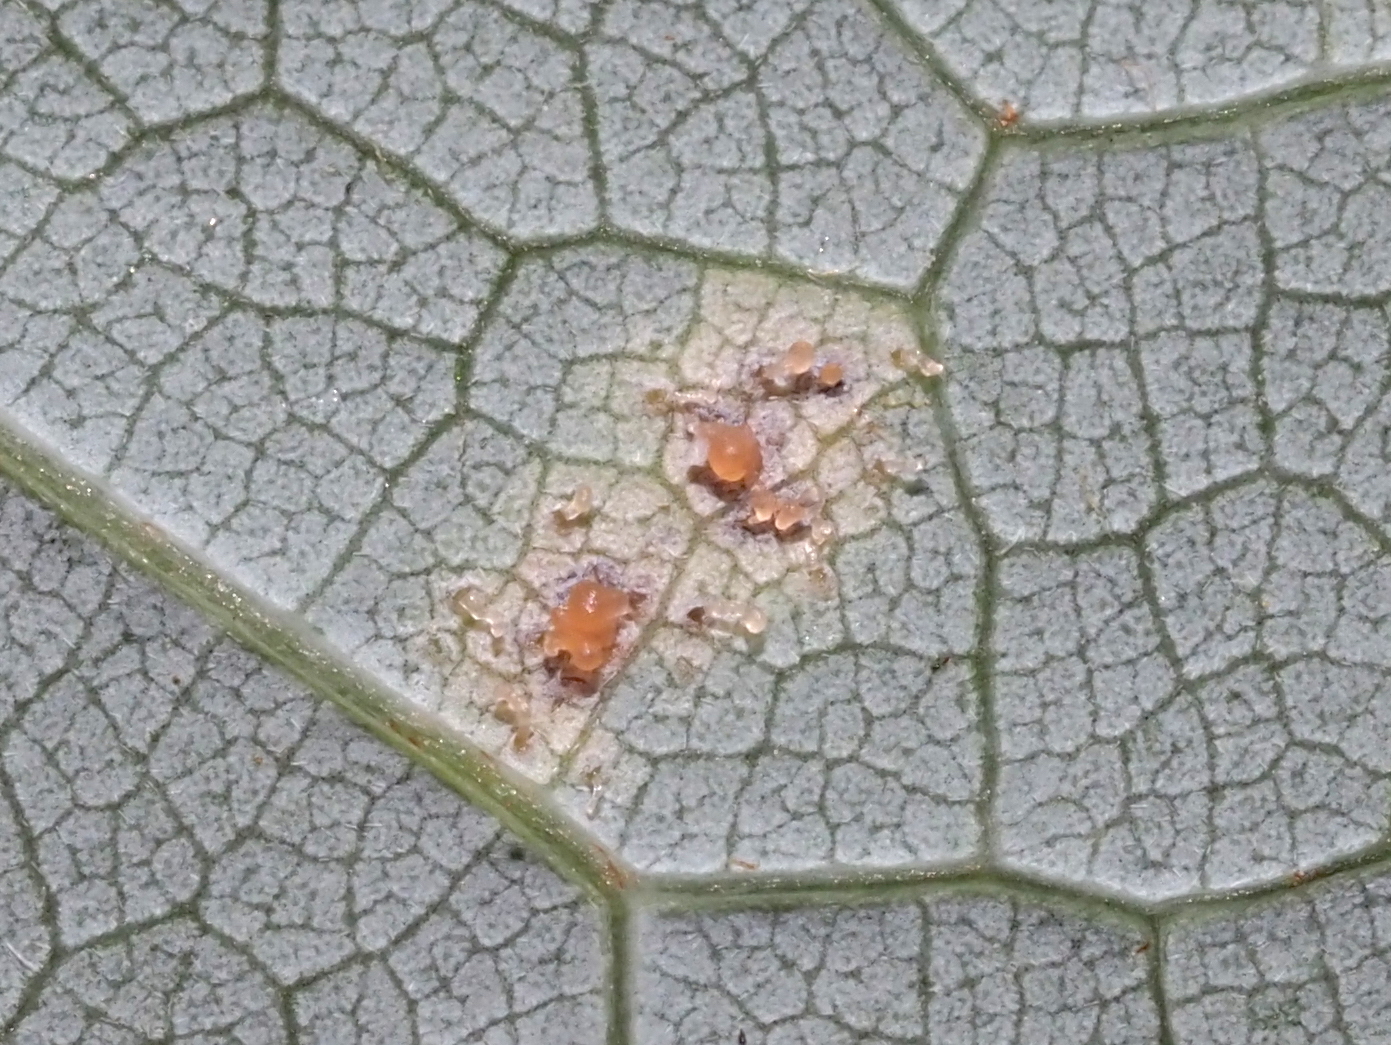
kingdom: Fungi
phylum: Ascomycota
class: Leotiomycetes
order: Rhytismatales
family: Rhytismataceae
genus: Rhytisma
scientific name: Rhytisma americanum
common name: American tar spot
